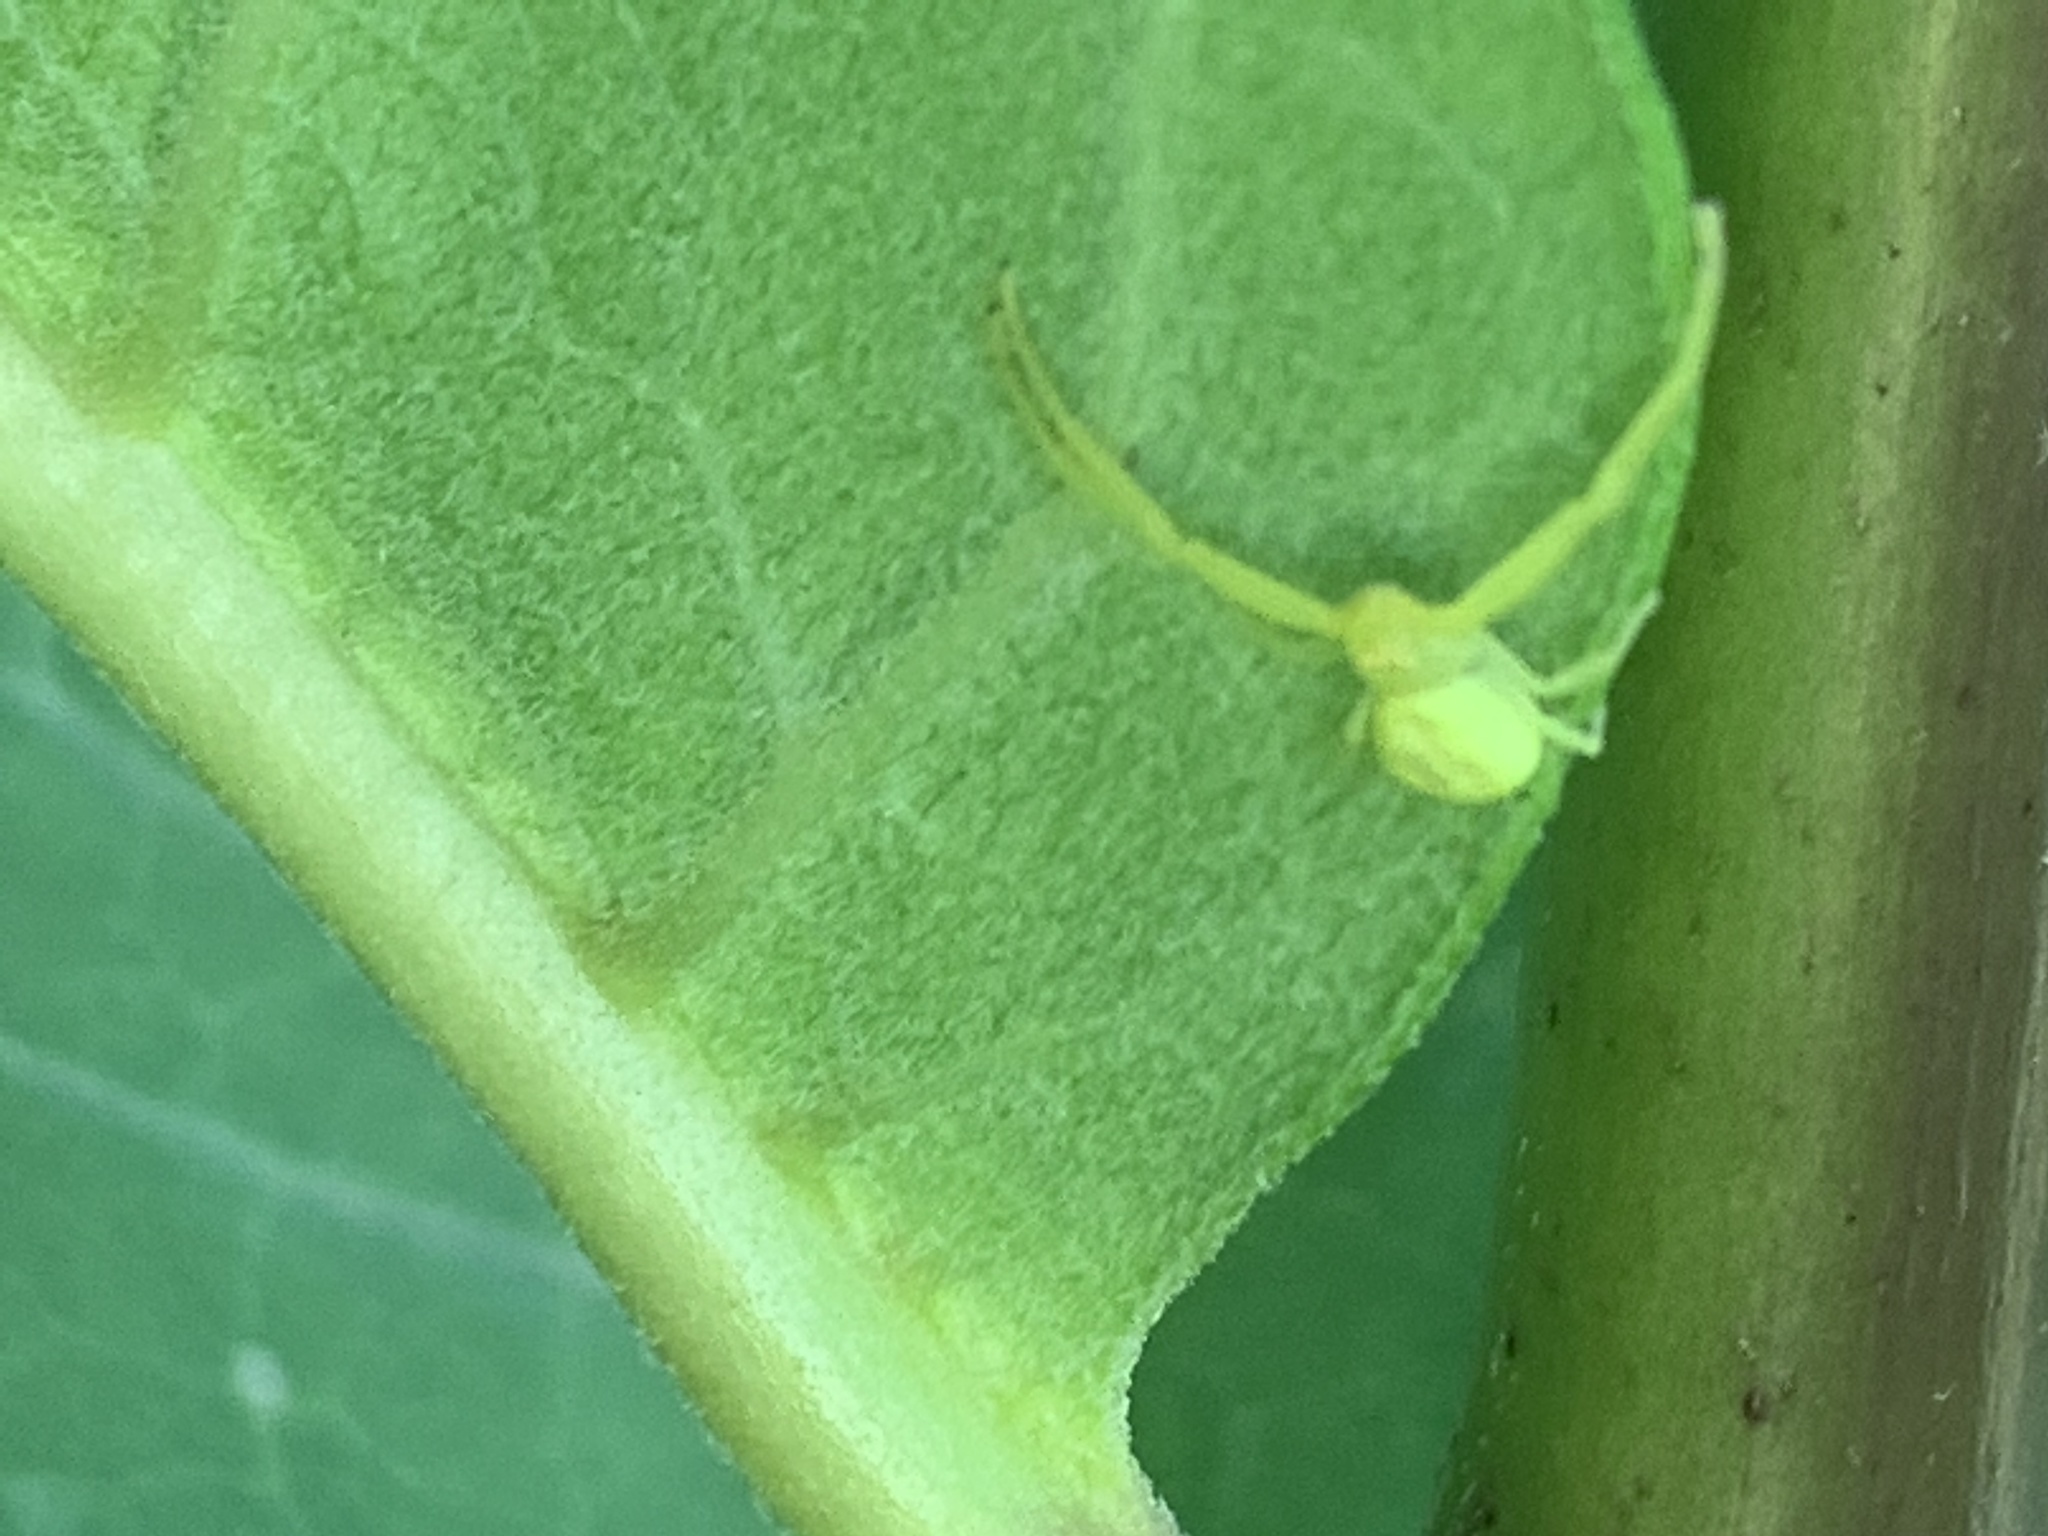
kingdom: Animalia
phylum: Arthropoda
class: Arachnida
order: Araneae
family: Thomisidae
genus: Misumessus
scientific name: Misumessus oblongus
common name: American green crab spider
